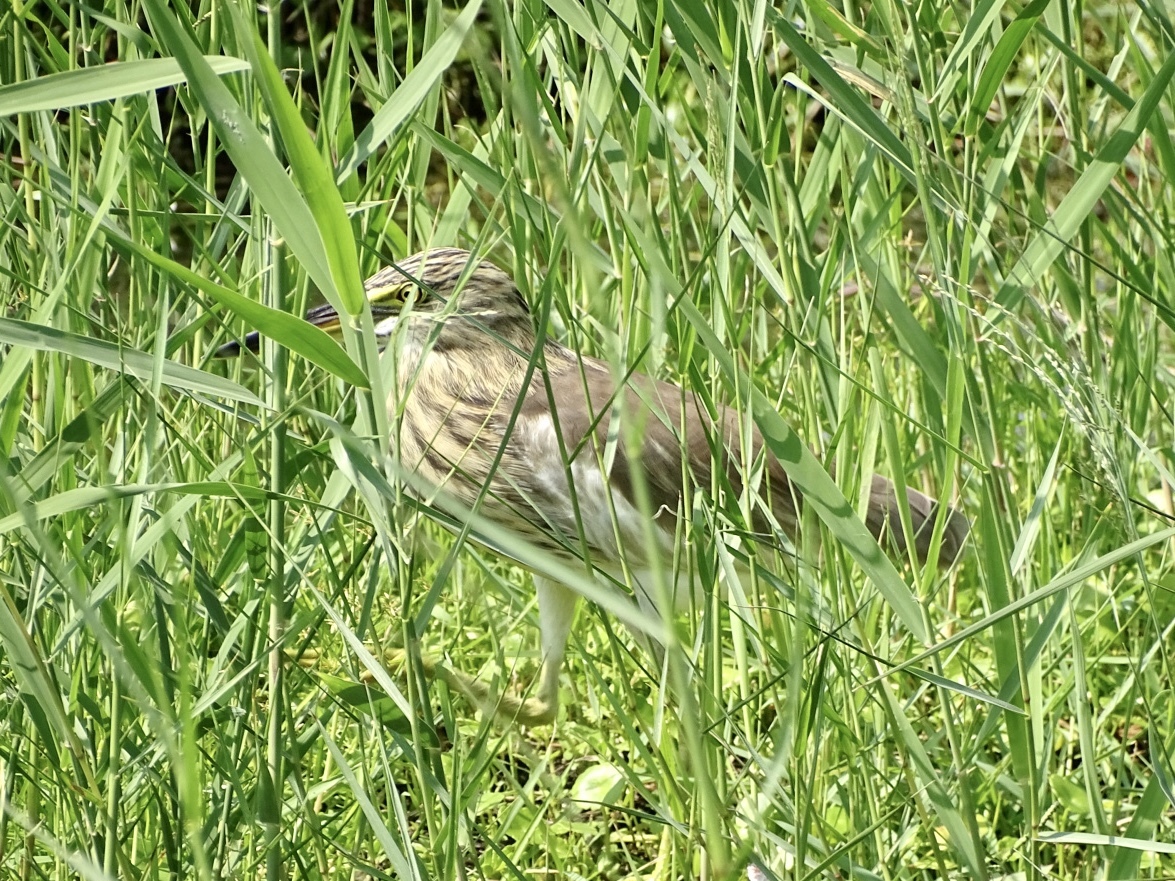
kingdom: Animalia
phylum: Chordata
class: Aves
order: Pelecaniformes
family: Ardeidae
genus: Ardeola
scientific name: Ardeola bacchus
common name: Chinese pond heron
